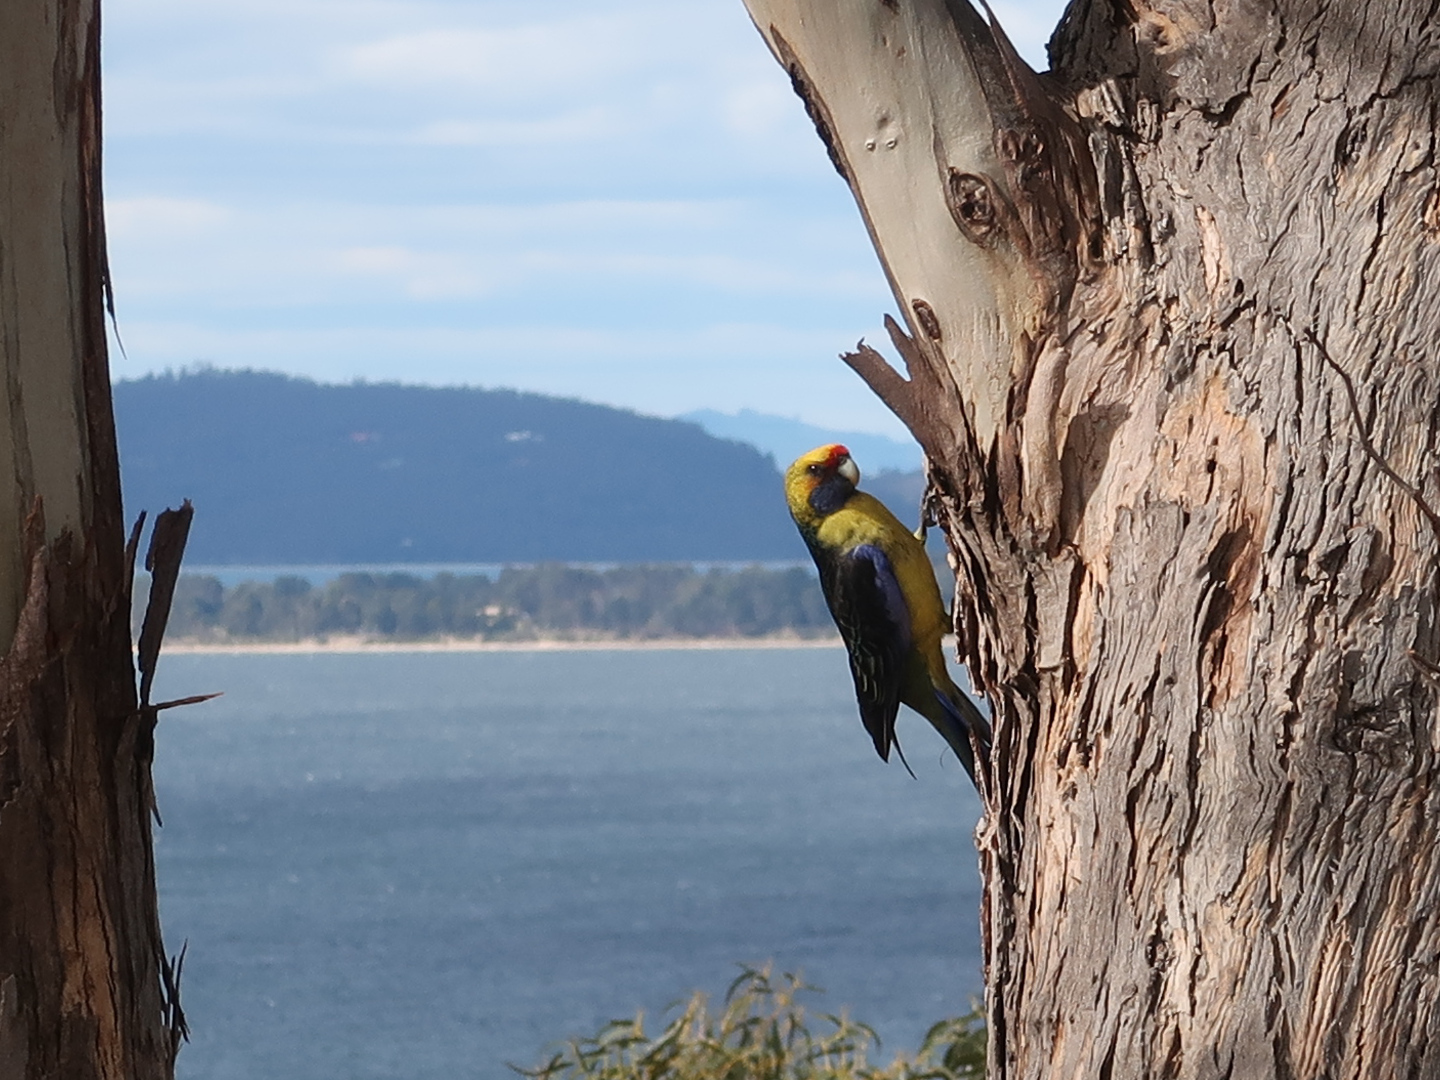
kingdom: Animalia
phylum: Chordata
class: Aves
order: Psittaciformes
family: Psittacidae
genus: Platycercus
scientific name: Platycercus caledonicus
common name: Green rosella
